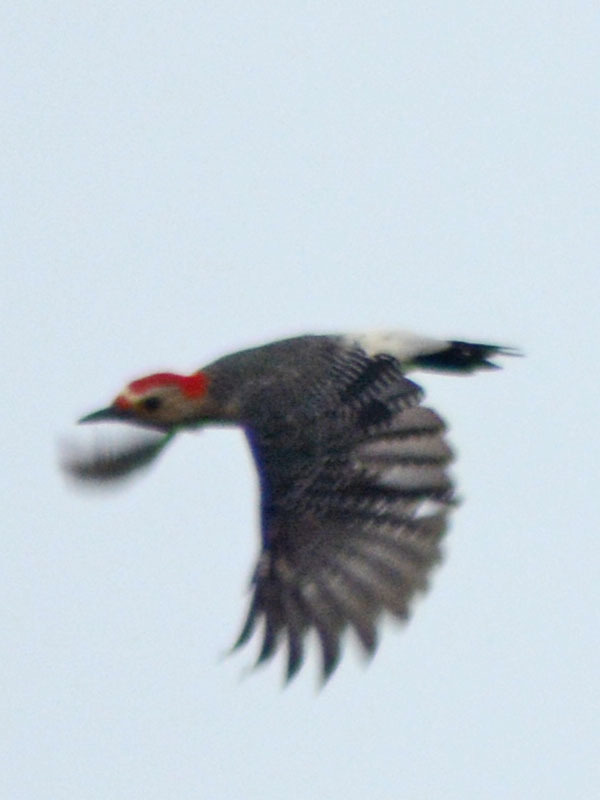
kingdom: Animalia
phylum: Chordata
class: Aves
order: Piciformes
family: Picidae
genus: Melanerpes
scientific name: Melanerpes aurifrons
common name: Golden-fronted woodpecker
